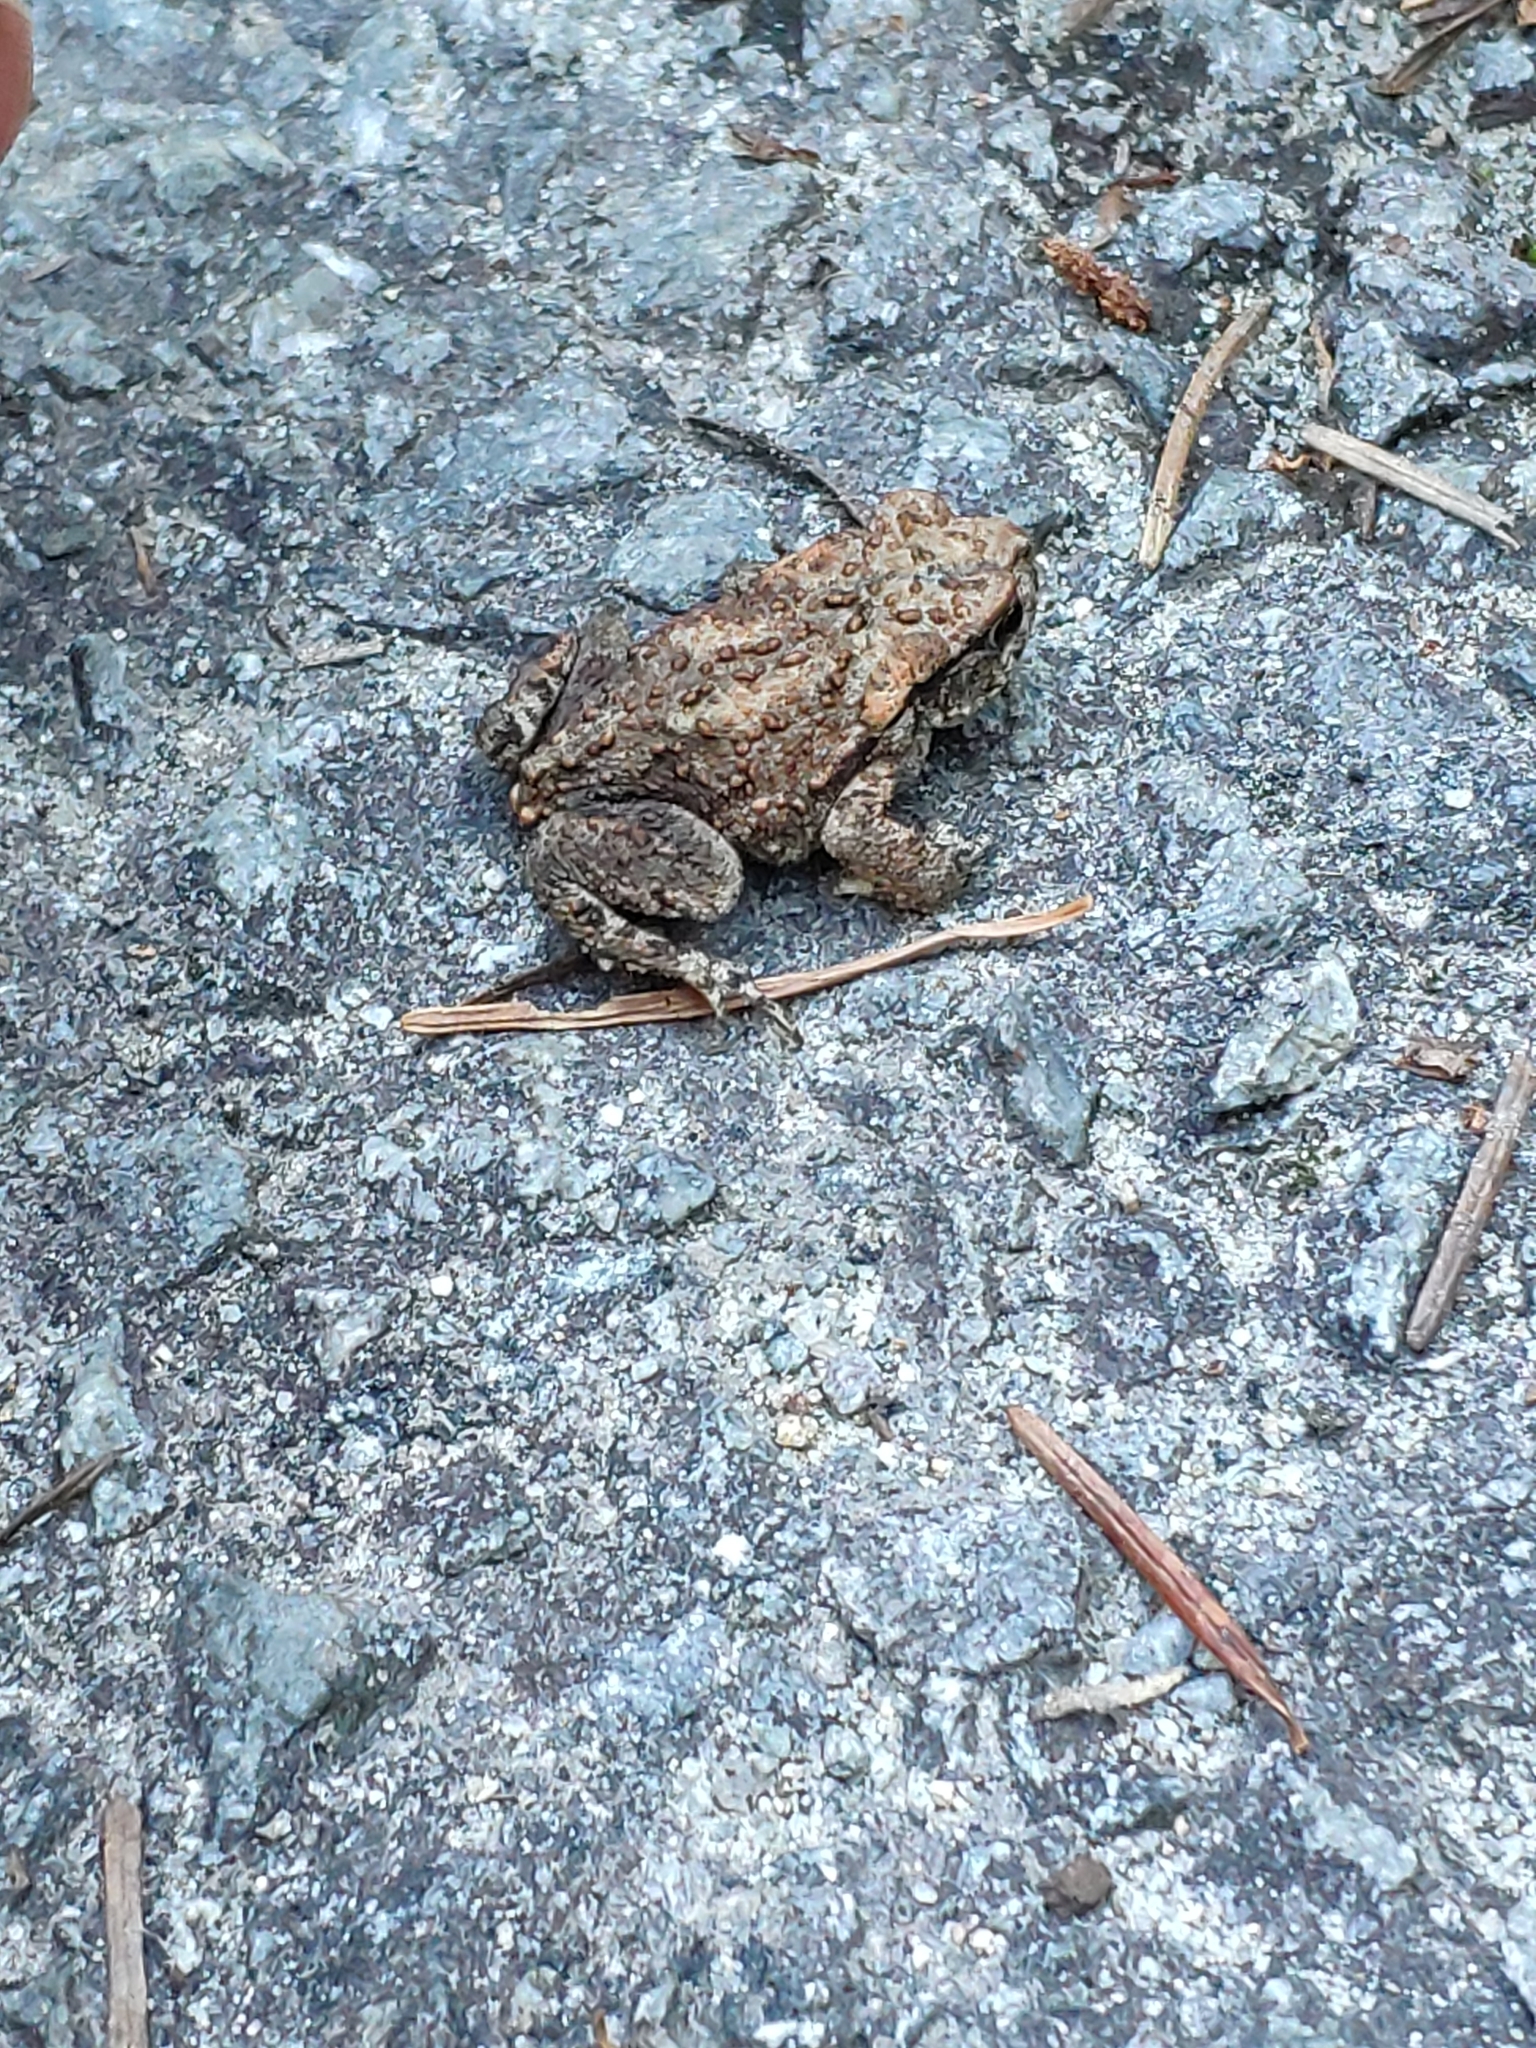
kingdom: Animalia
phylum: Chordata
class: Amphibia
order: Anura
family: Bufonidae
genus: Bufo
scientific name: Bufo spinosus
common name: Western common toad
